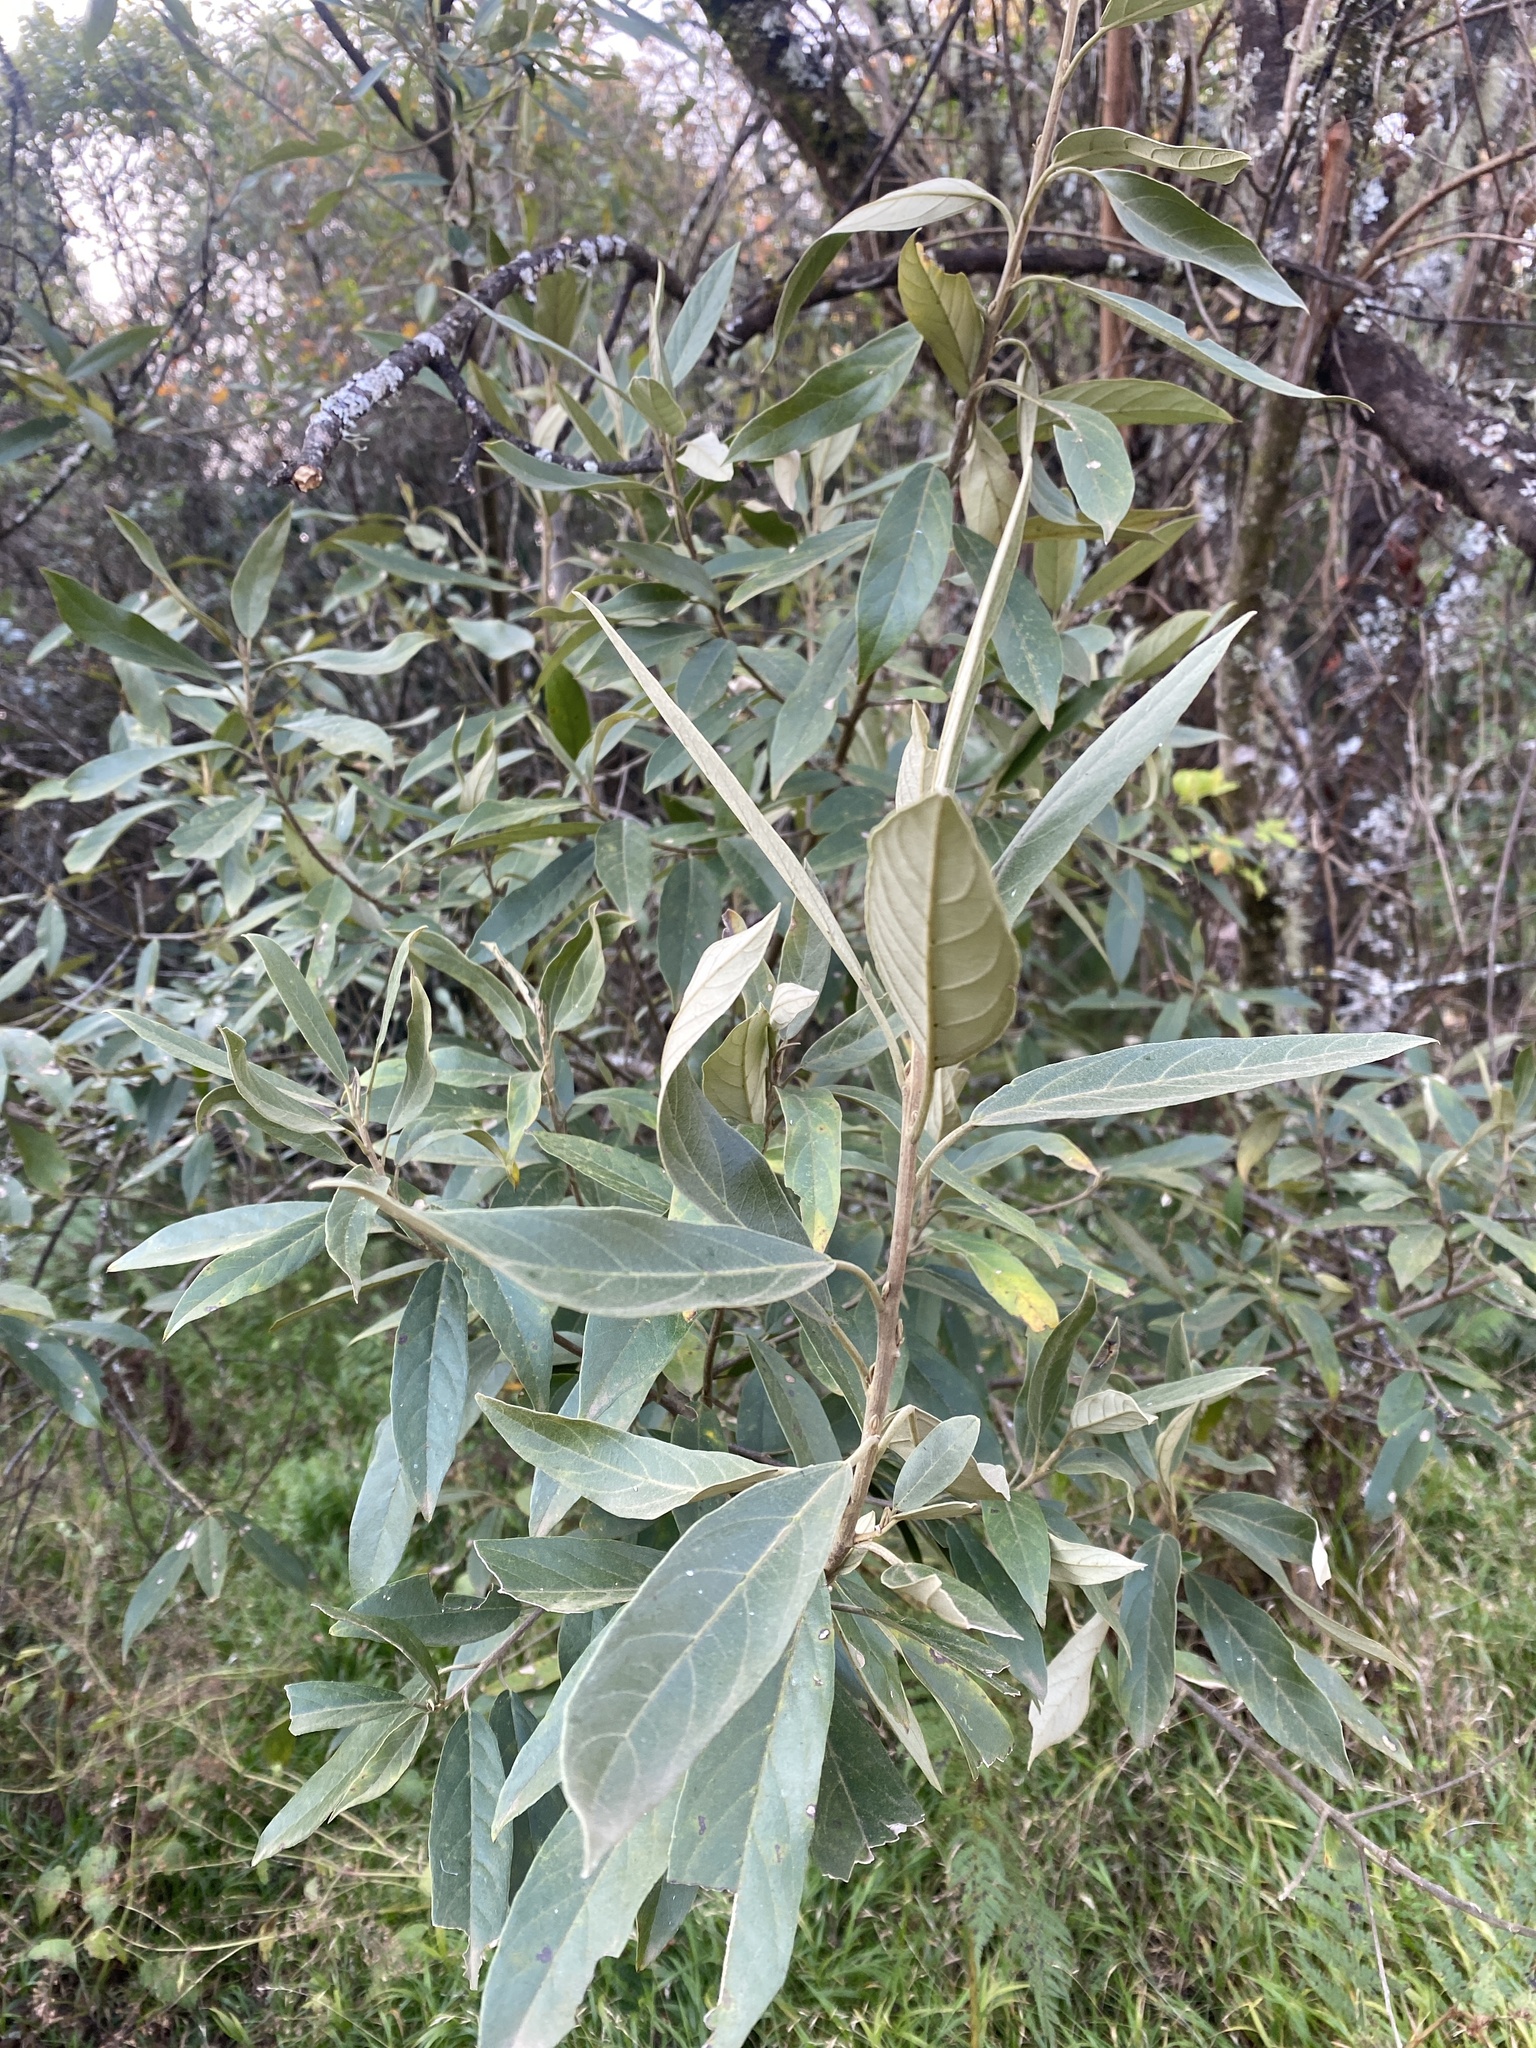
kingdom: Plantae
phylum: Tracheophyta
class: Magnoliopsida
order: Malpighiales
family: Achariaceae
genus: Kiggelaria
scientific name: Kiggelaria africana
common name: Wild peach
